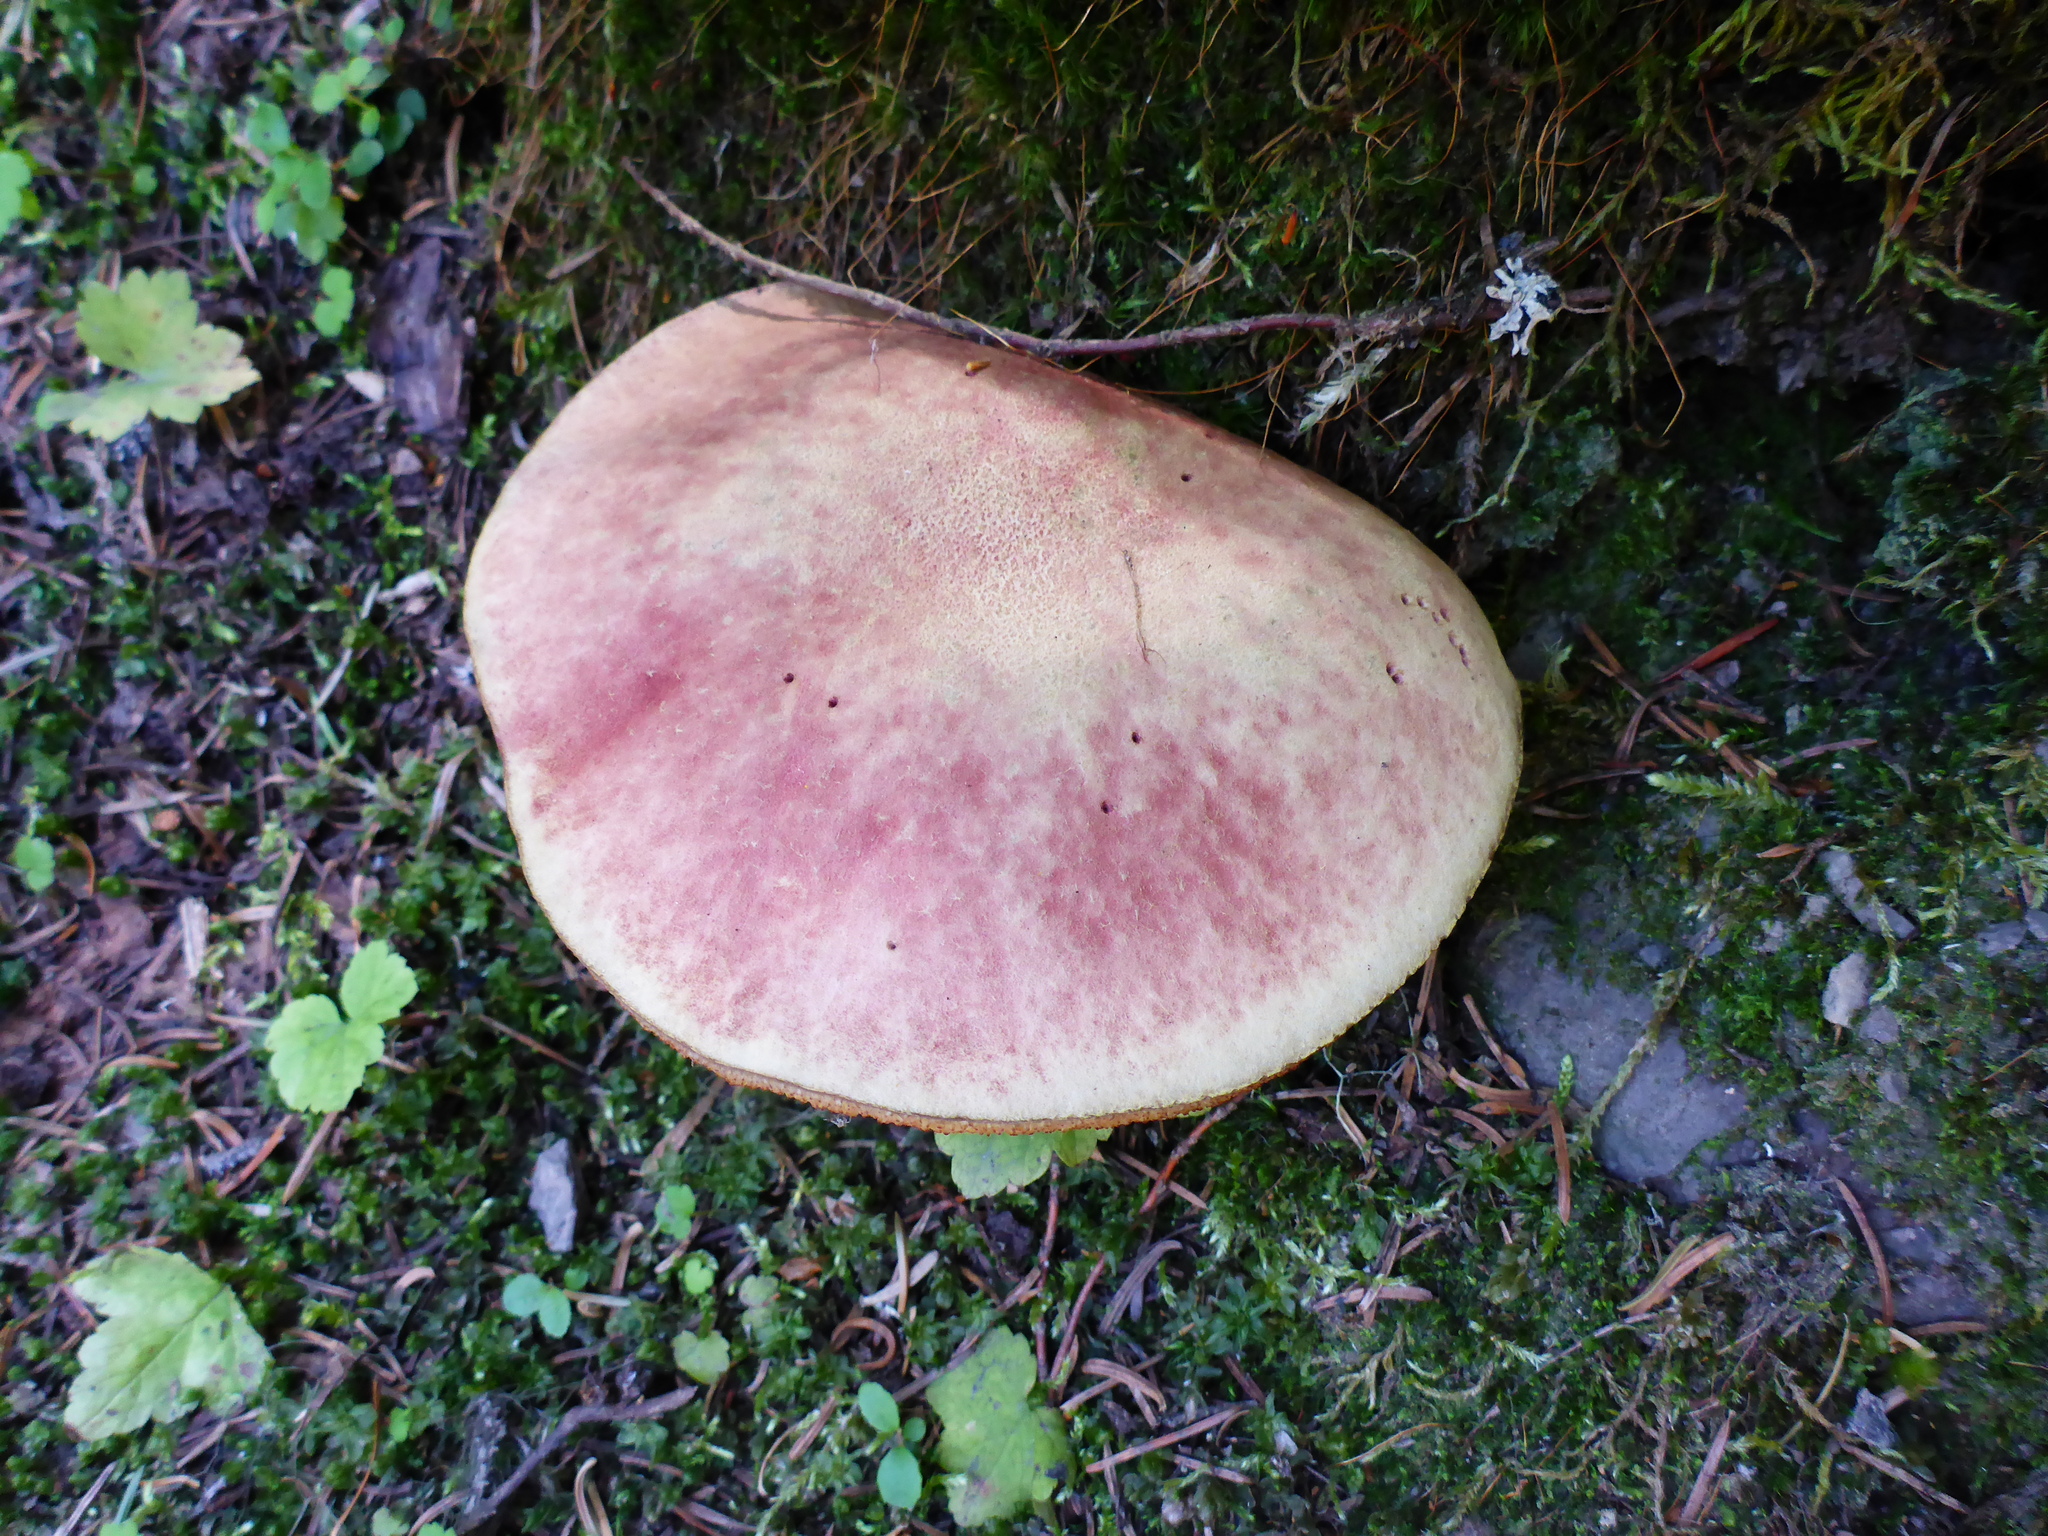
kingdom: Fungi
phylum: Basidiomycota
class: Agaricomycetes
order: Boletales
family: Boletaceae
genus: Boletus
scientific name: Boletus smithii
